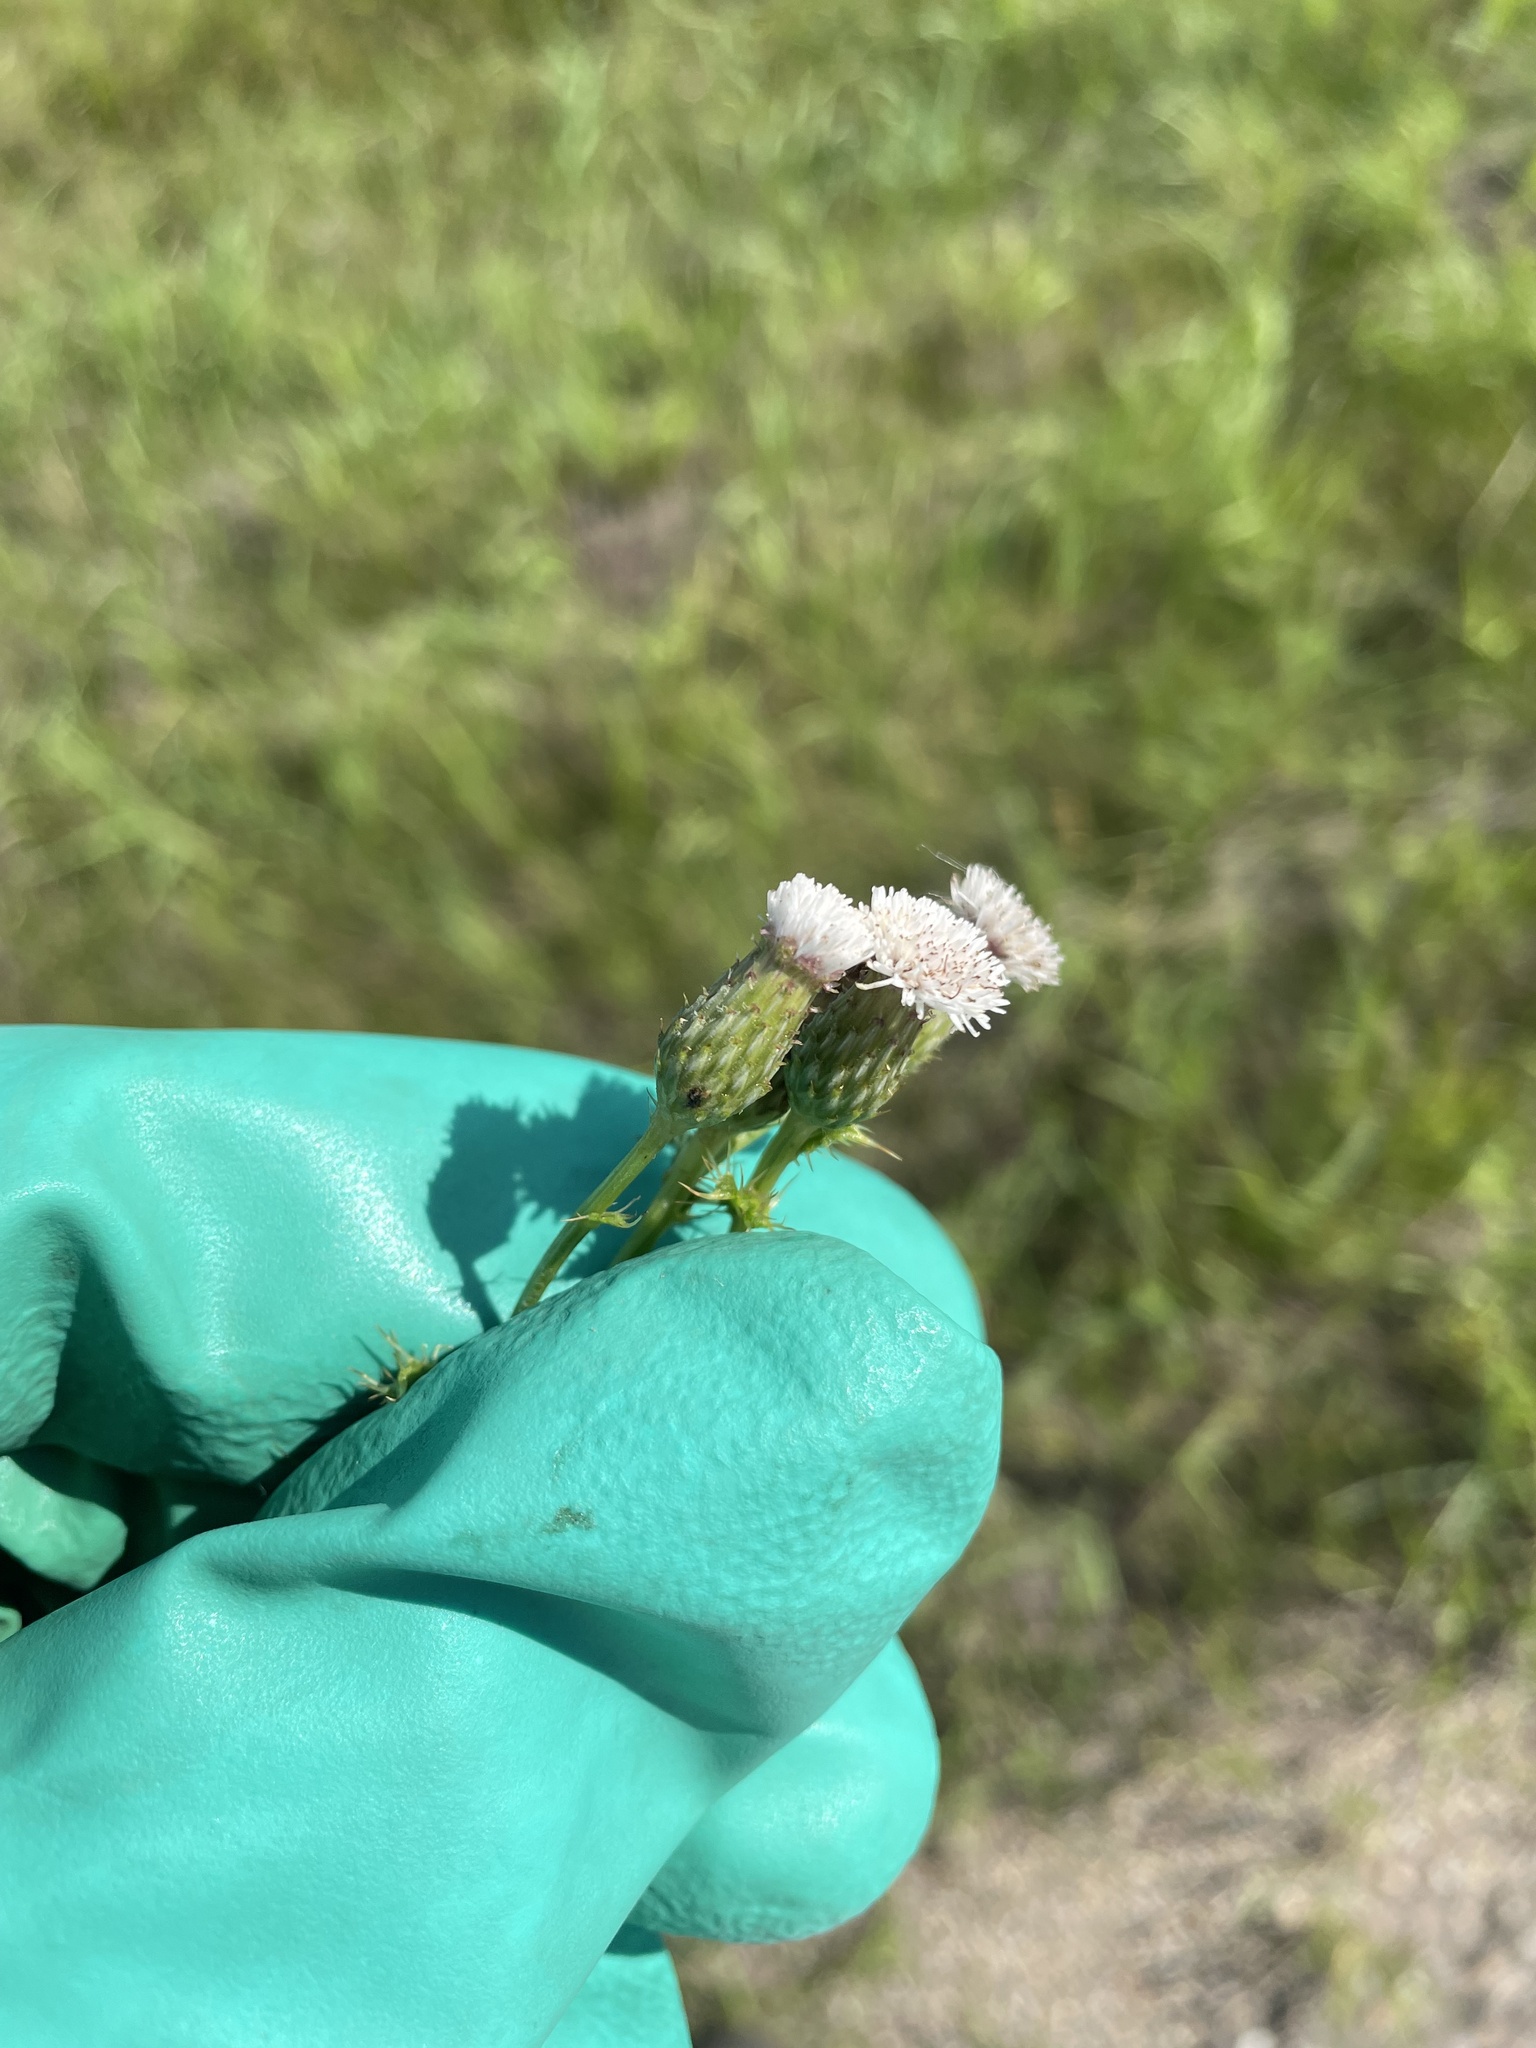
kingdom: Plantae
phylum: Tracheophyta
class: Magnoliopsida
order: Asterales
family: Asteraceae
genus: Cirsium
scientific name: Cirsium arvense
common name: Creeping thistle
